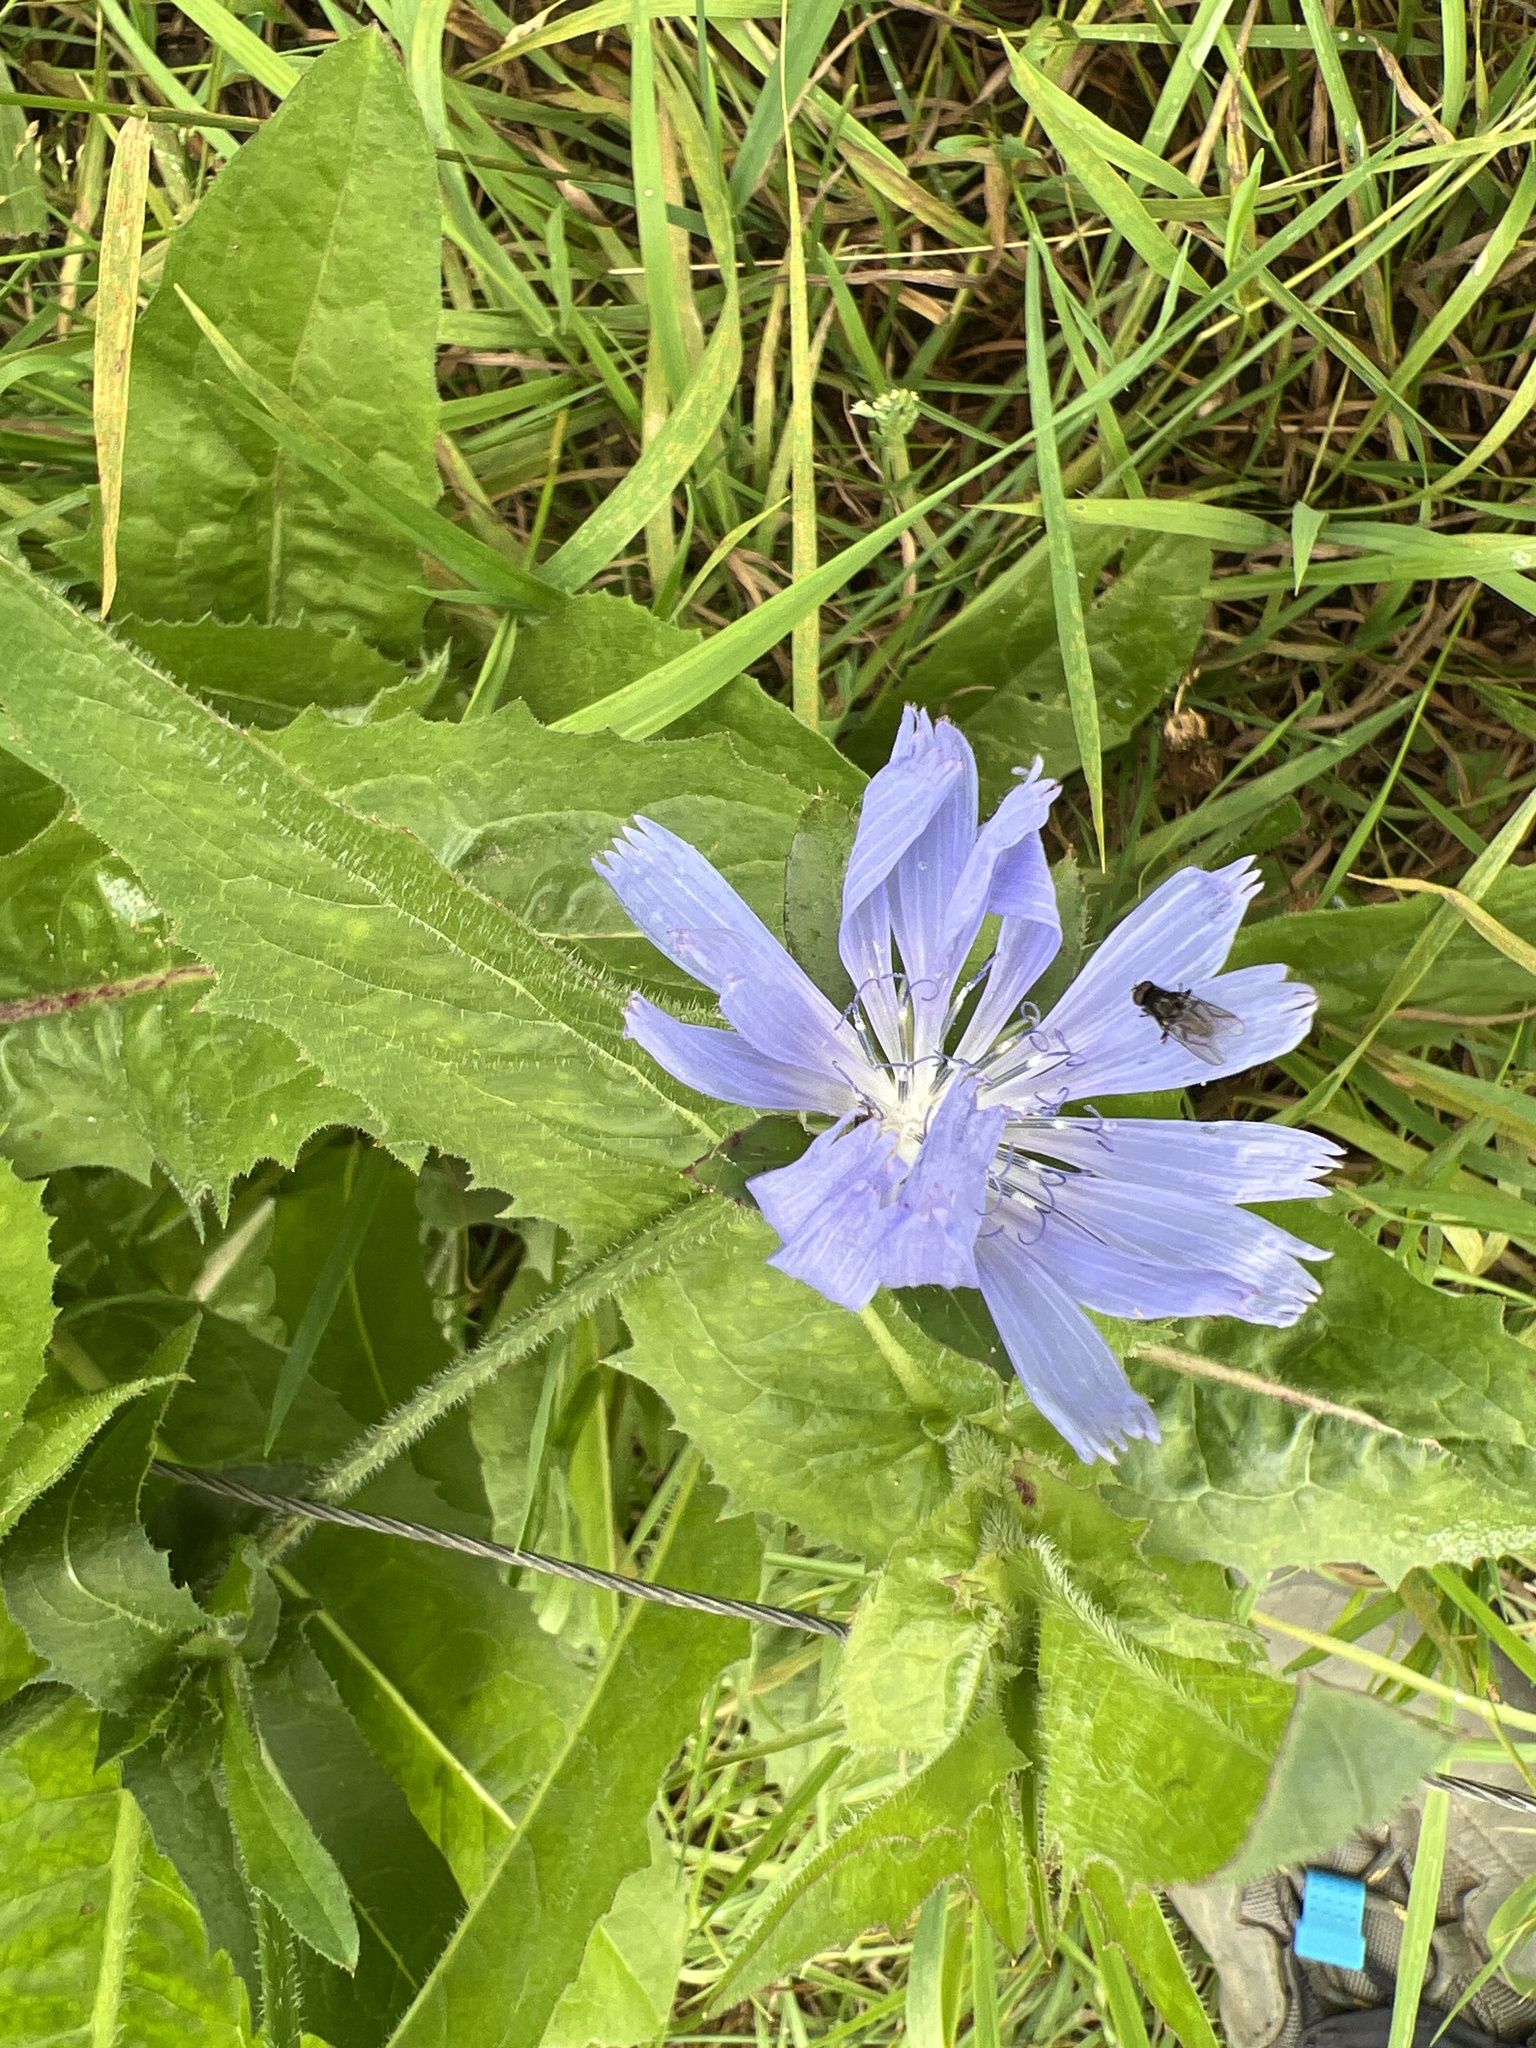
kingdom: Plantae
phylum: Tracheophyta
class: Magnoliopsida
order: Asterales
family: Asteraceae
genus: Cichorium
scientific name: Cichorium intybus
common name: Chicory
